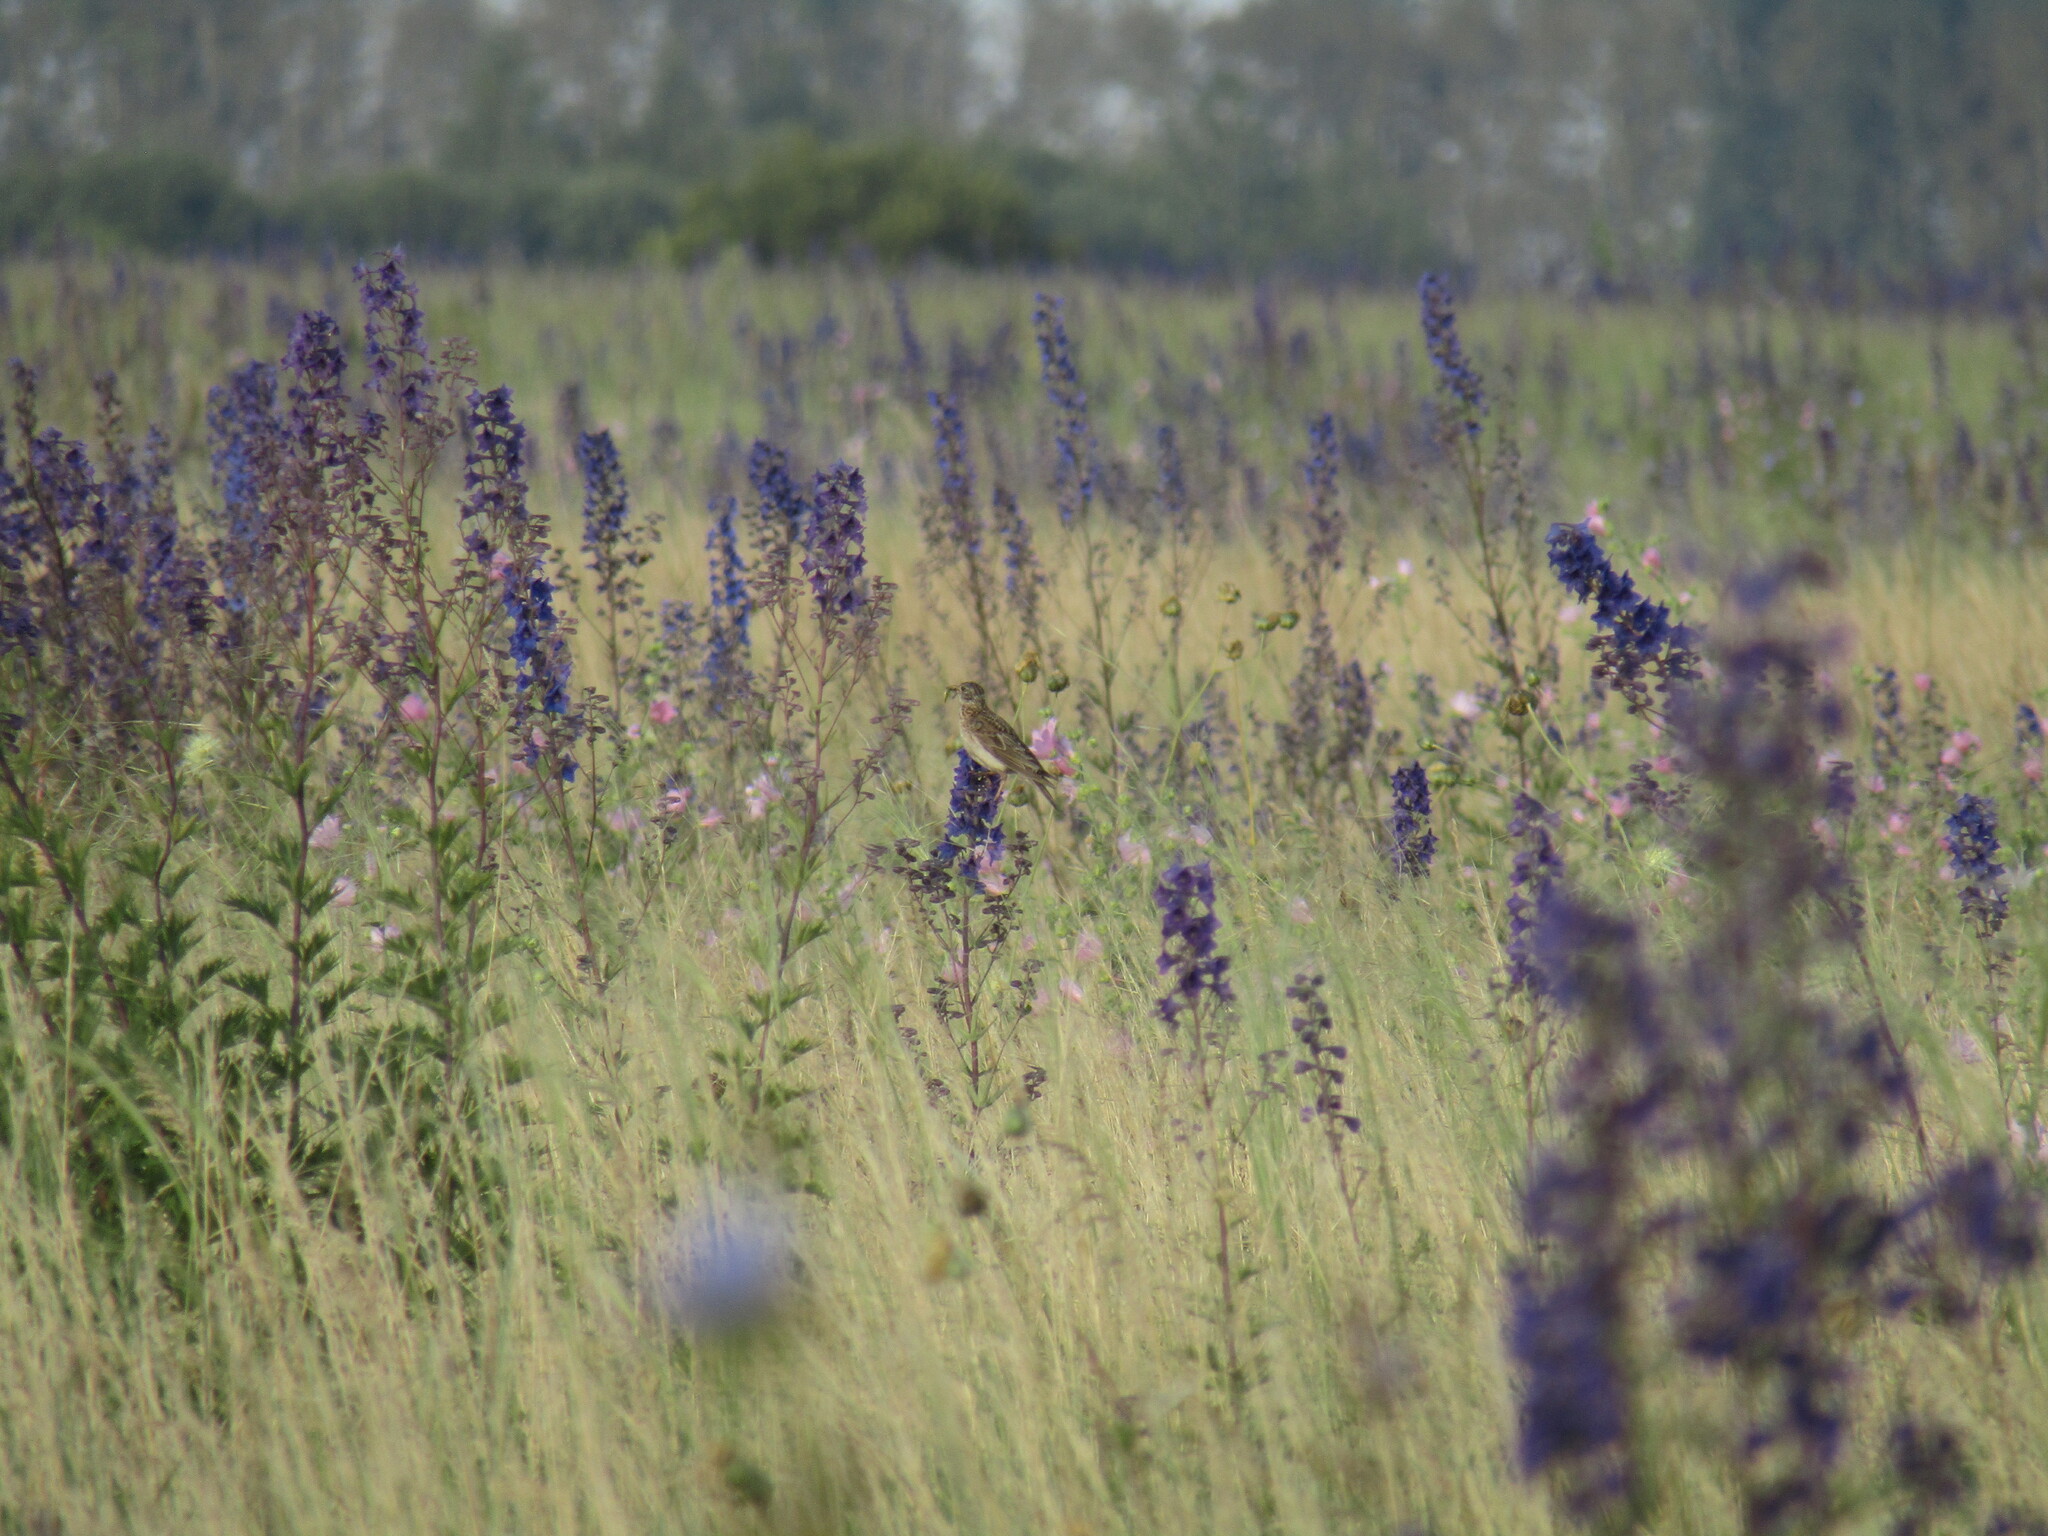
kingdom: Animalia
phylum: Chordata
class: Aves
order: Passeriformes
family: Alaudidae
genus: Alauda
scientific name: Alauda arvensis
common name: Eurasian skylark
